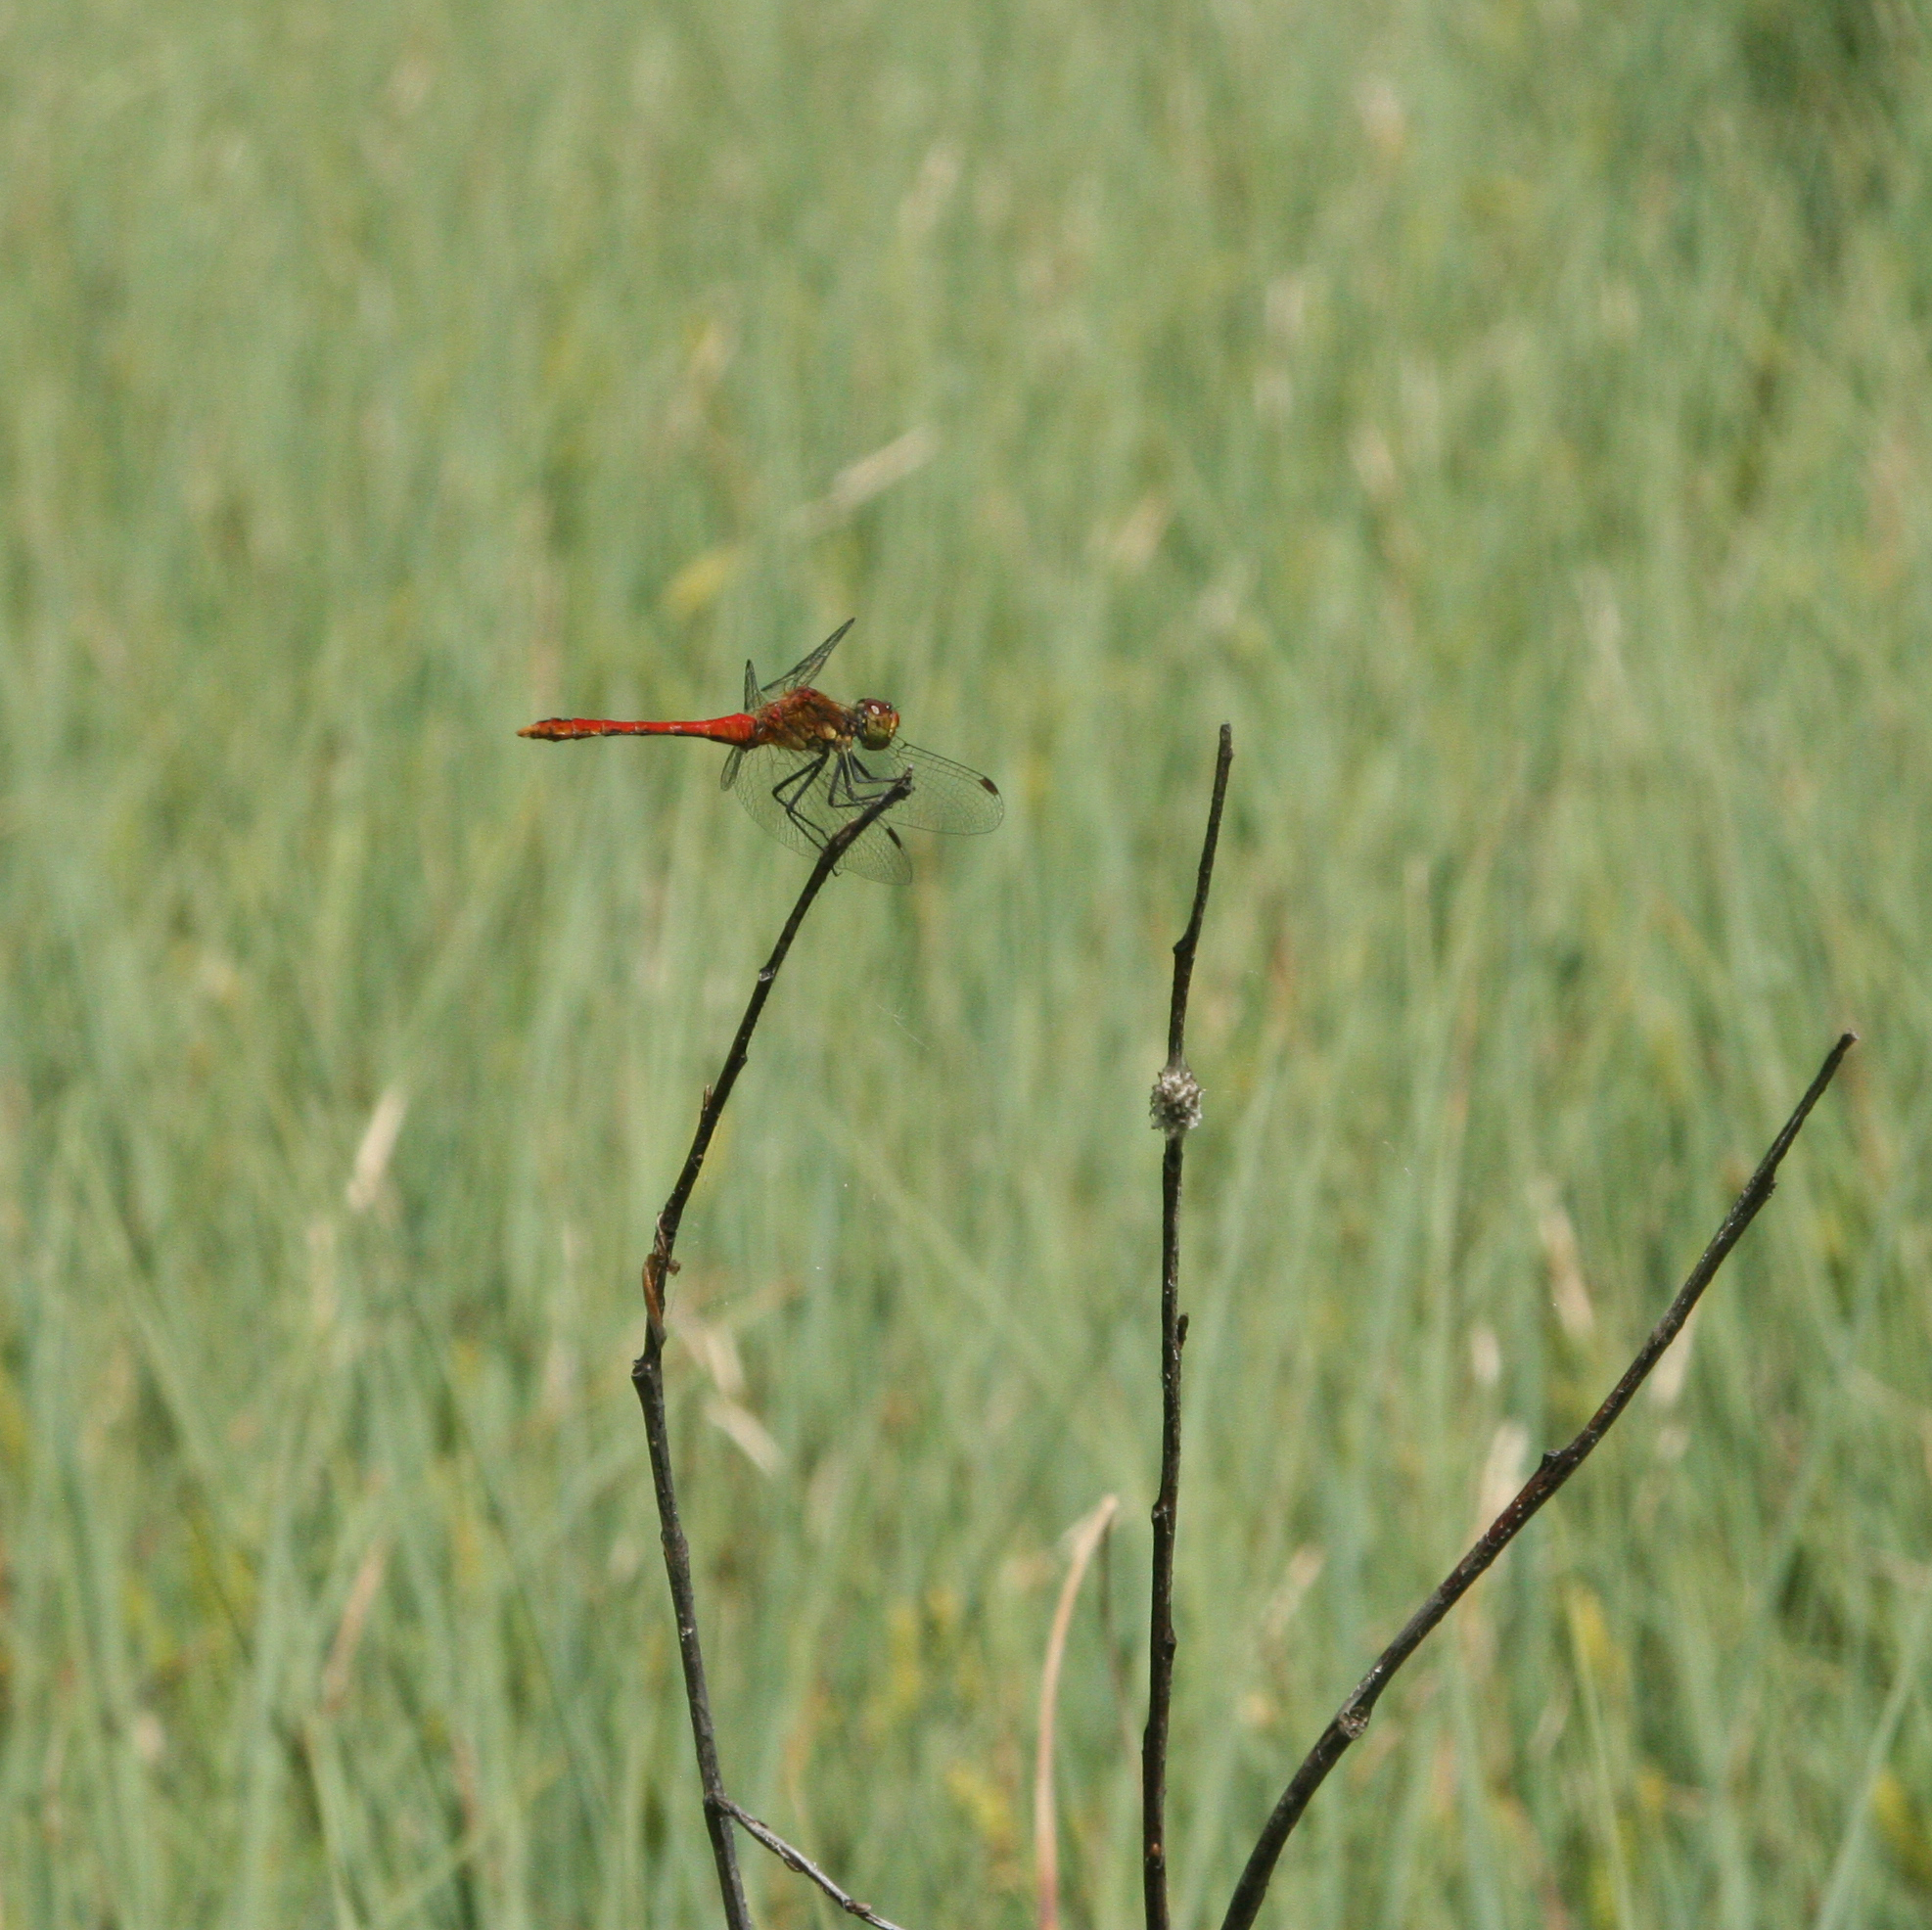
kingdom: Animalia
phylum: Arthropoda
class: Insecta
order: Odonata
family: Libellulidae
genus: Sympetrum
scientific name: Sympetrum sanguineum
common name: Ruddy darter
